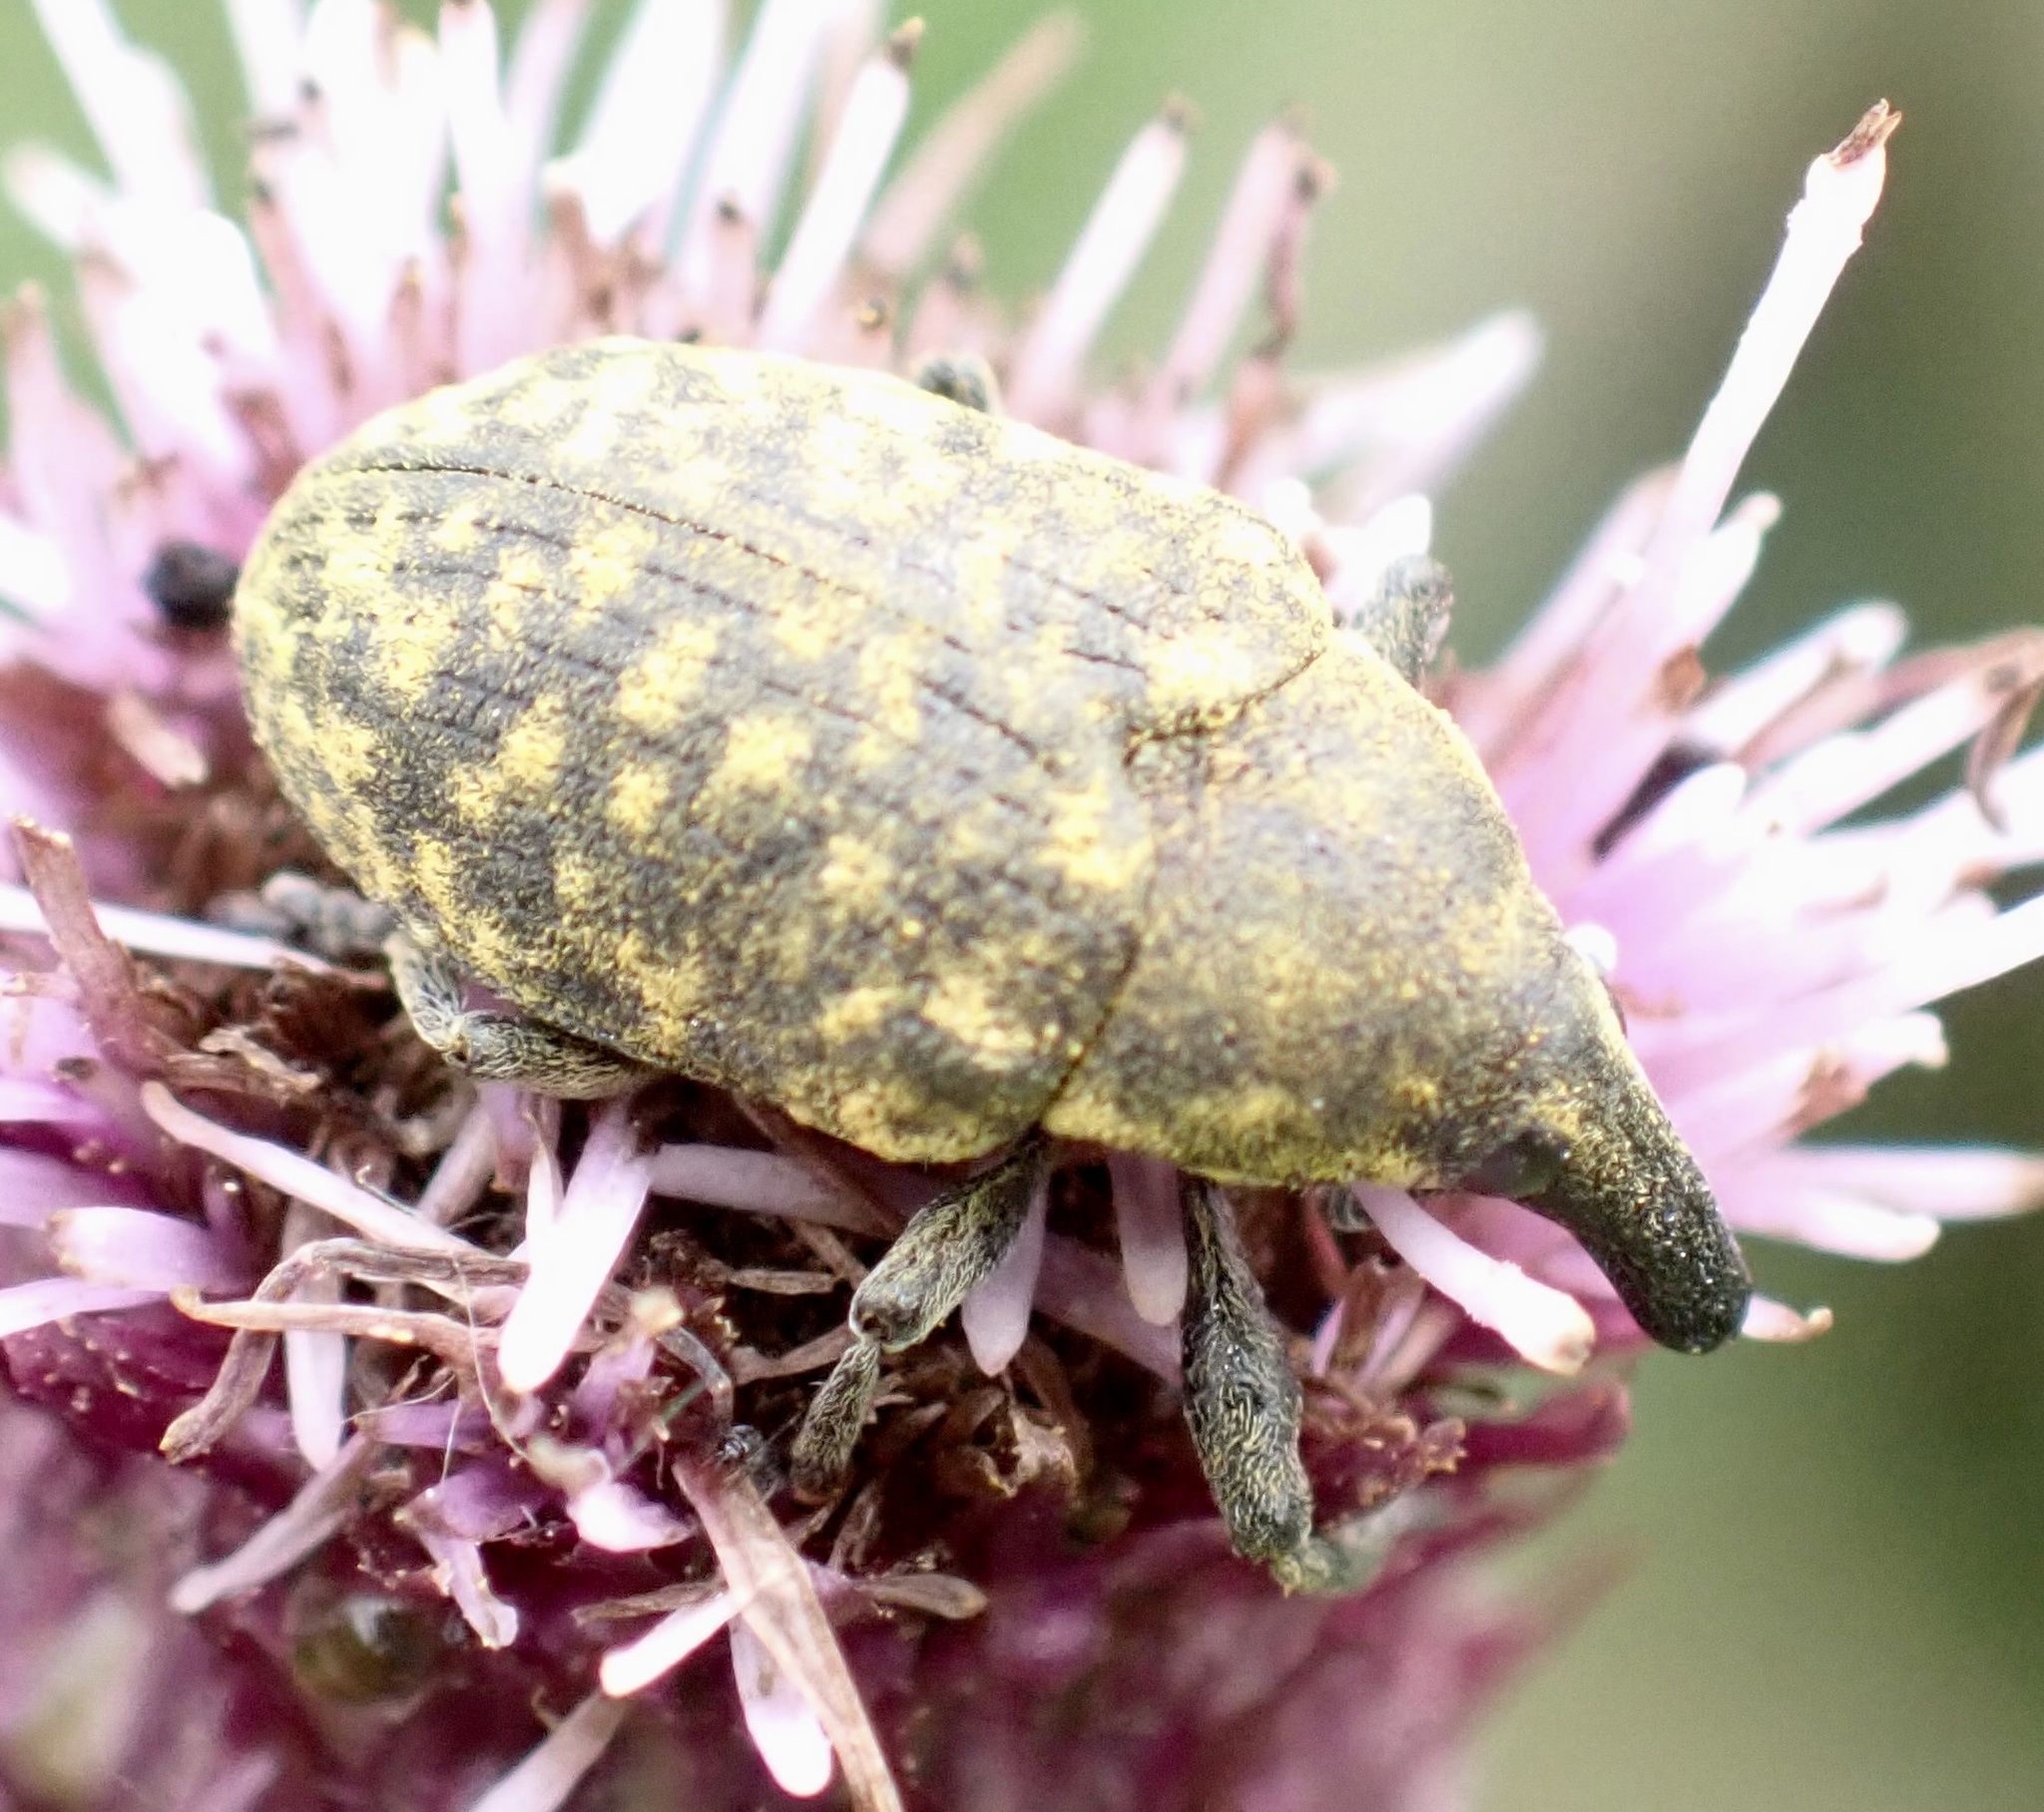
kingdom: Animalia
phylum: Arthropoda
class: Insecta
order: Coleoptera
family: Curculionidae
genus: Larinus
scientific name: Larinus turbinatus
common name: Weevil
